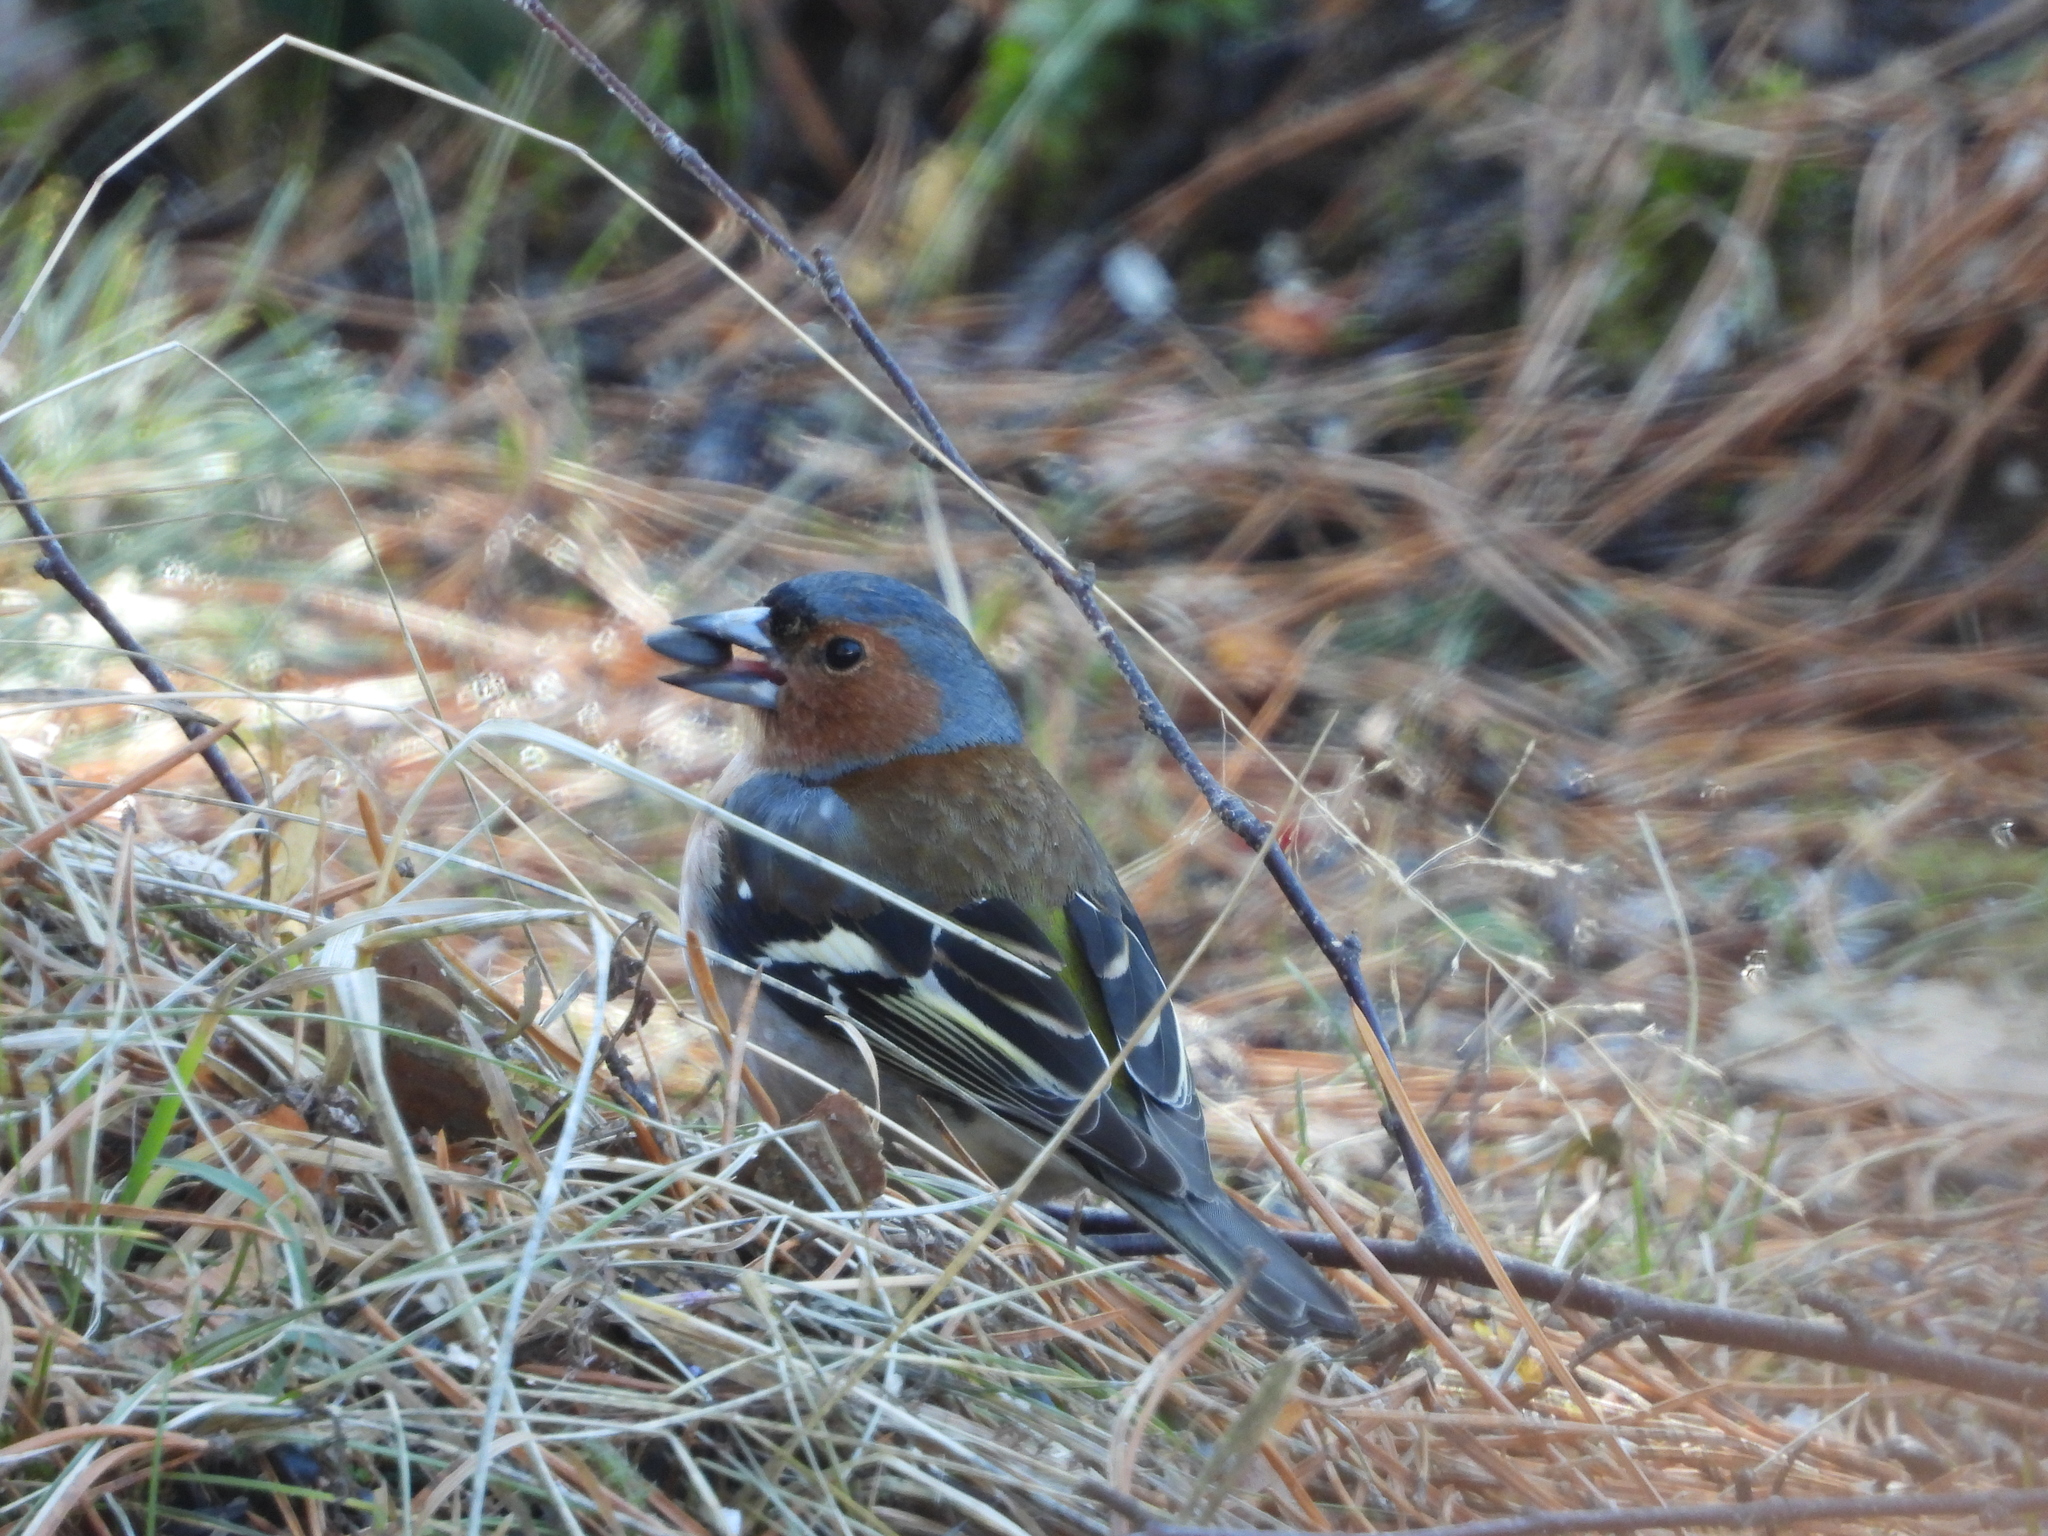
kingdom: Animalia
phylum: Chordata
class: Aves
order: Passeriformes
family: Fringillidae
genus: Fringilla
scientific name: Fringilla coelebs
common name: Common chaffinch
